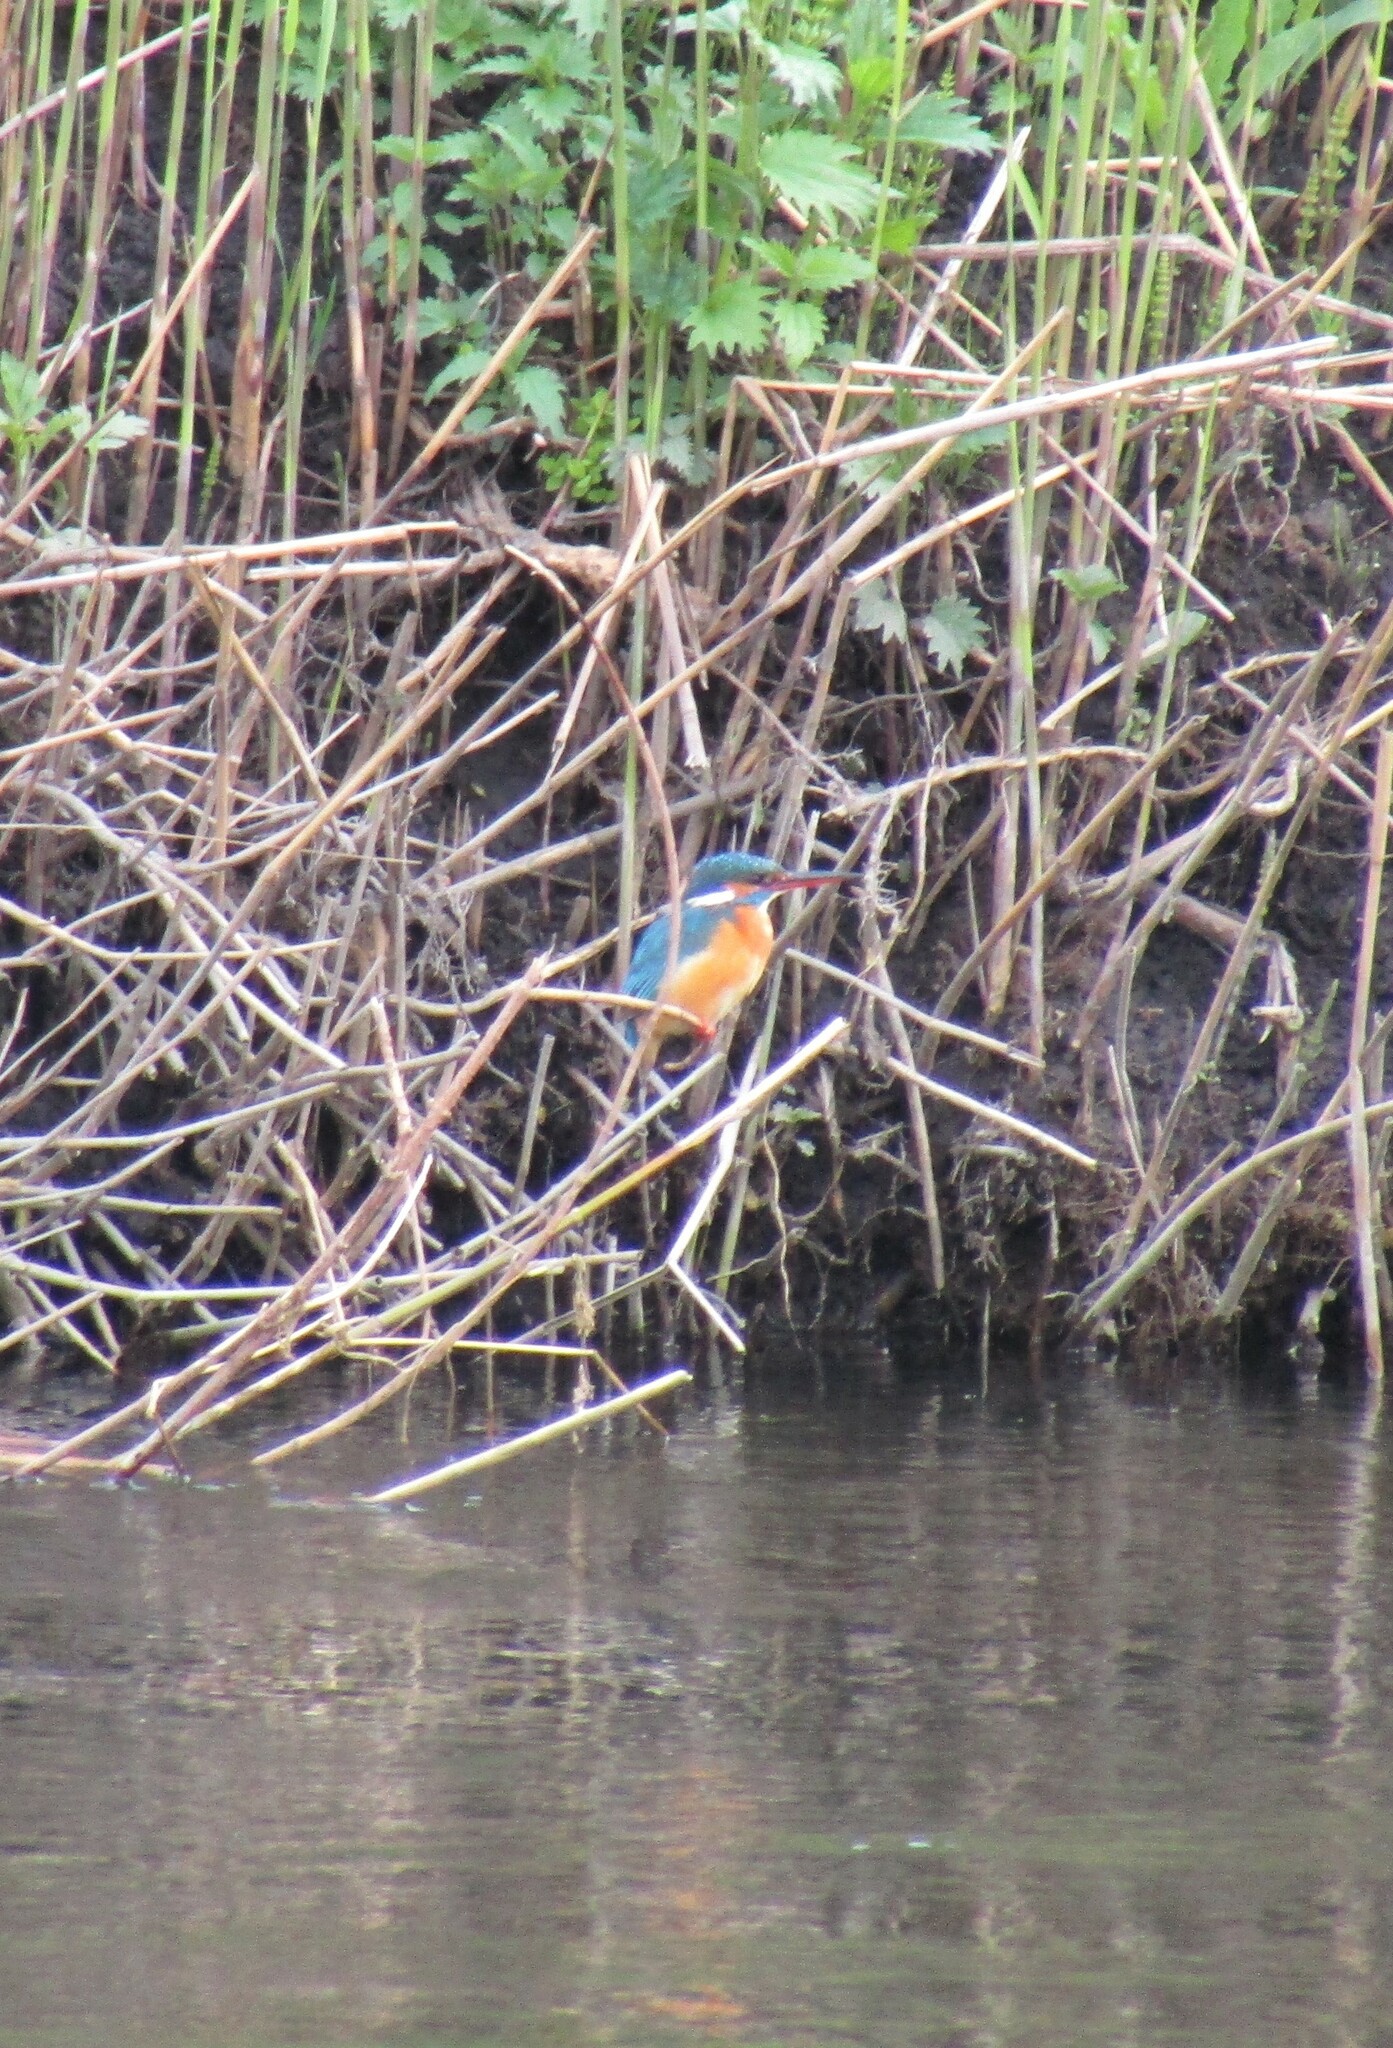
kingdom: Animalia
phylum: Chordata
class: Aves
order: Coraciiformes
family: Alcedinidae
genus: Alcedo
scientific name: Alcedo atthis
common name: Common kingfisher
